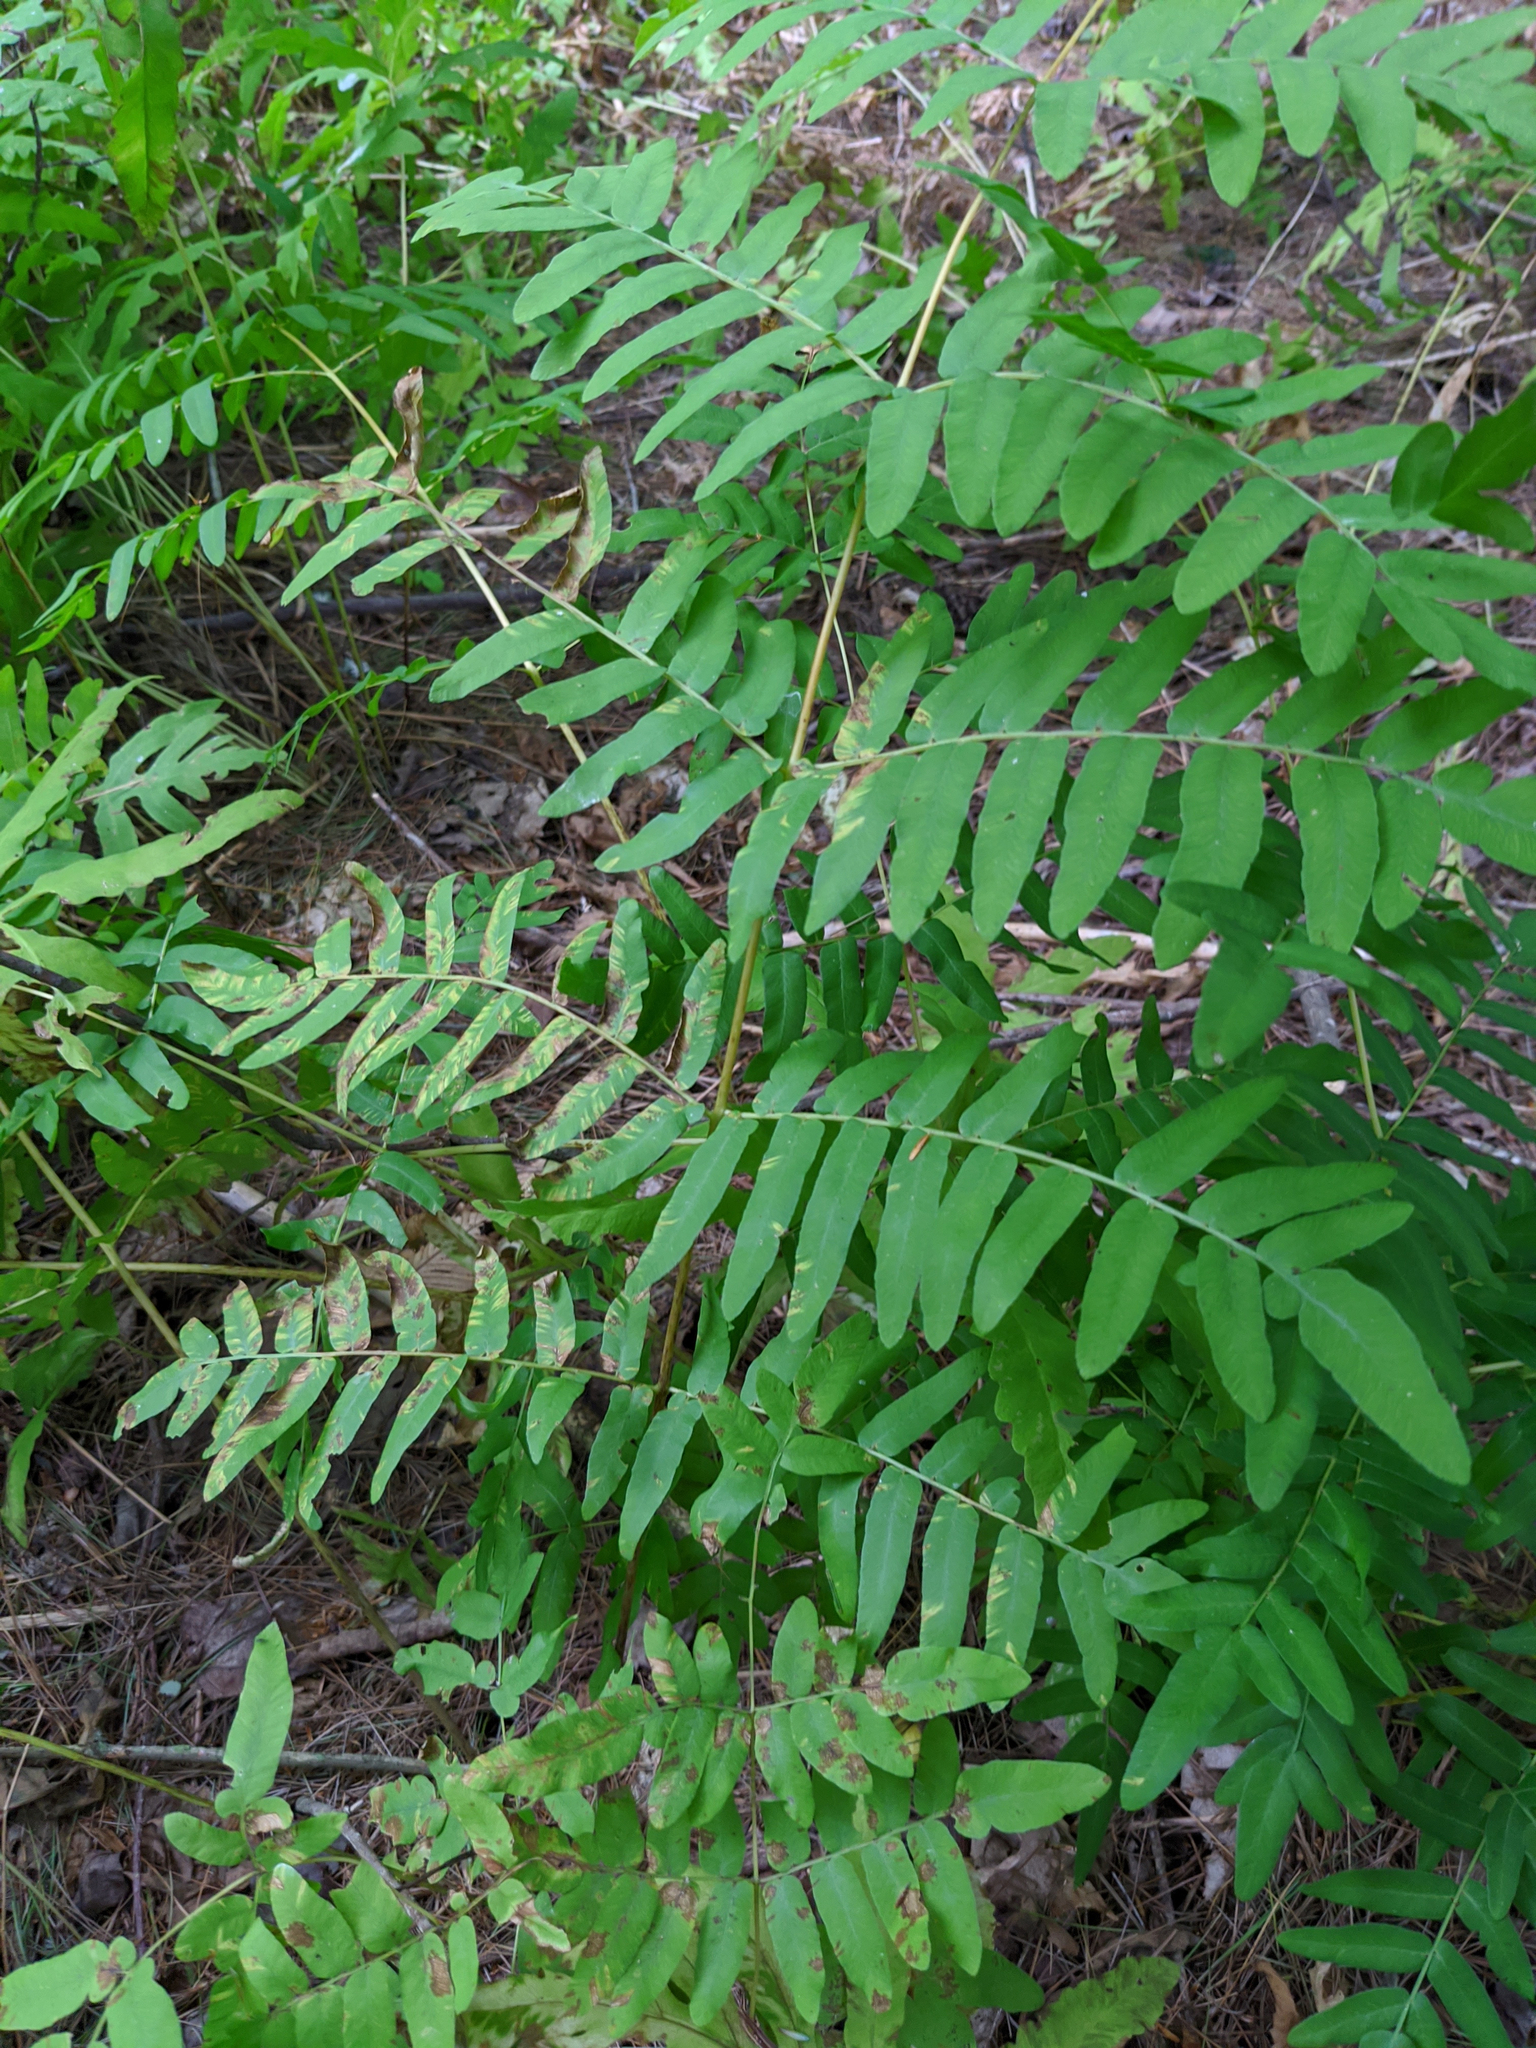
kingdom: Plantae
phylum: Tracheophyta
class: Polypodiopsida
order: Osmundales
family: Osmundaceae
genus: Osmunda
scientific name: Osmunda spectabilis
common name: American royal fern
